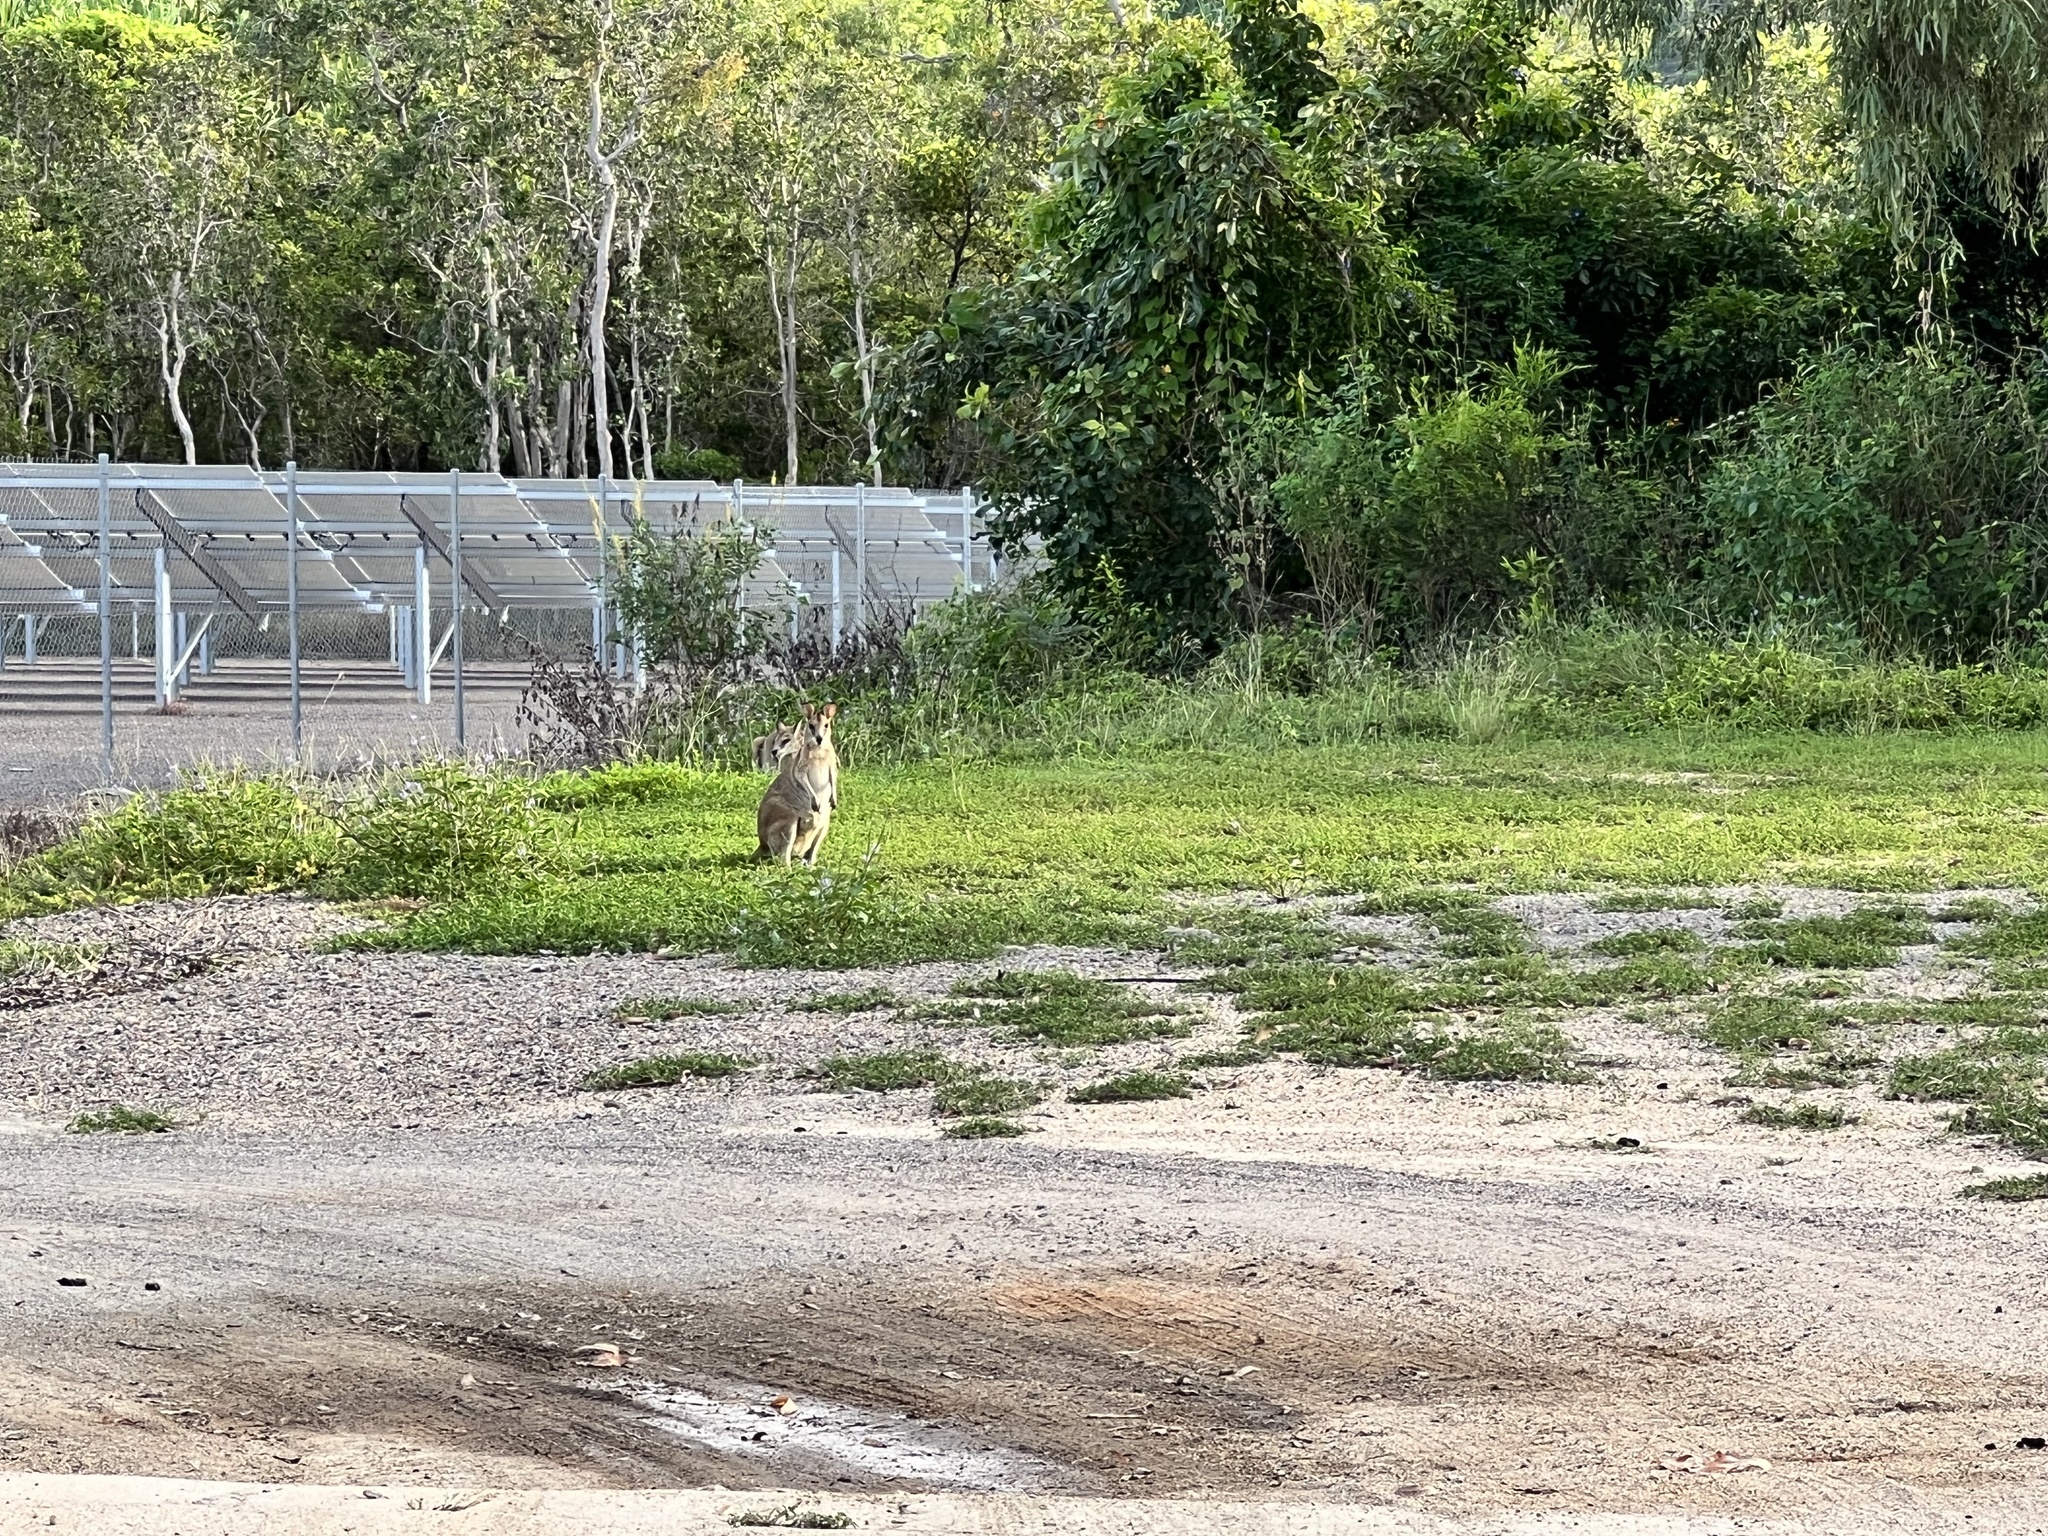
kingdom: Animalia
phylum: Chordata
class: Mammalia
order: Diprotodontia
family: Macropodidae
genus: Macropus
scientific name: Macropus agilis
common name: Agile wallaby
